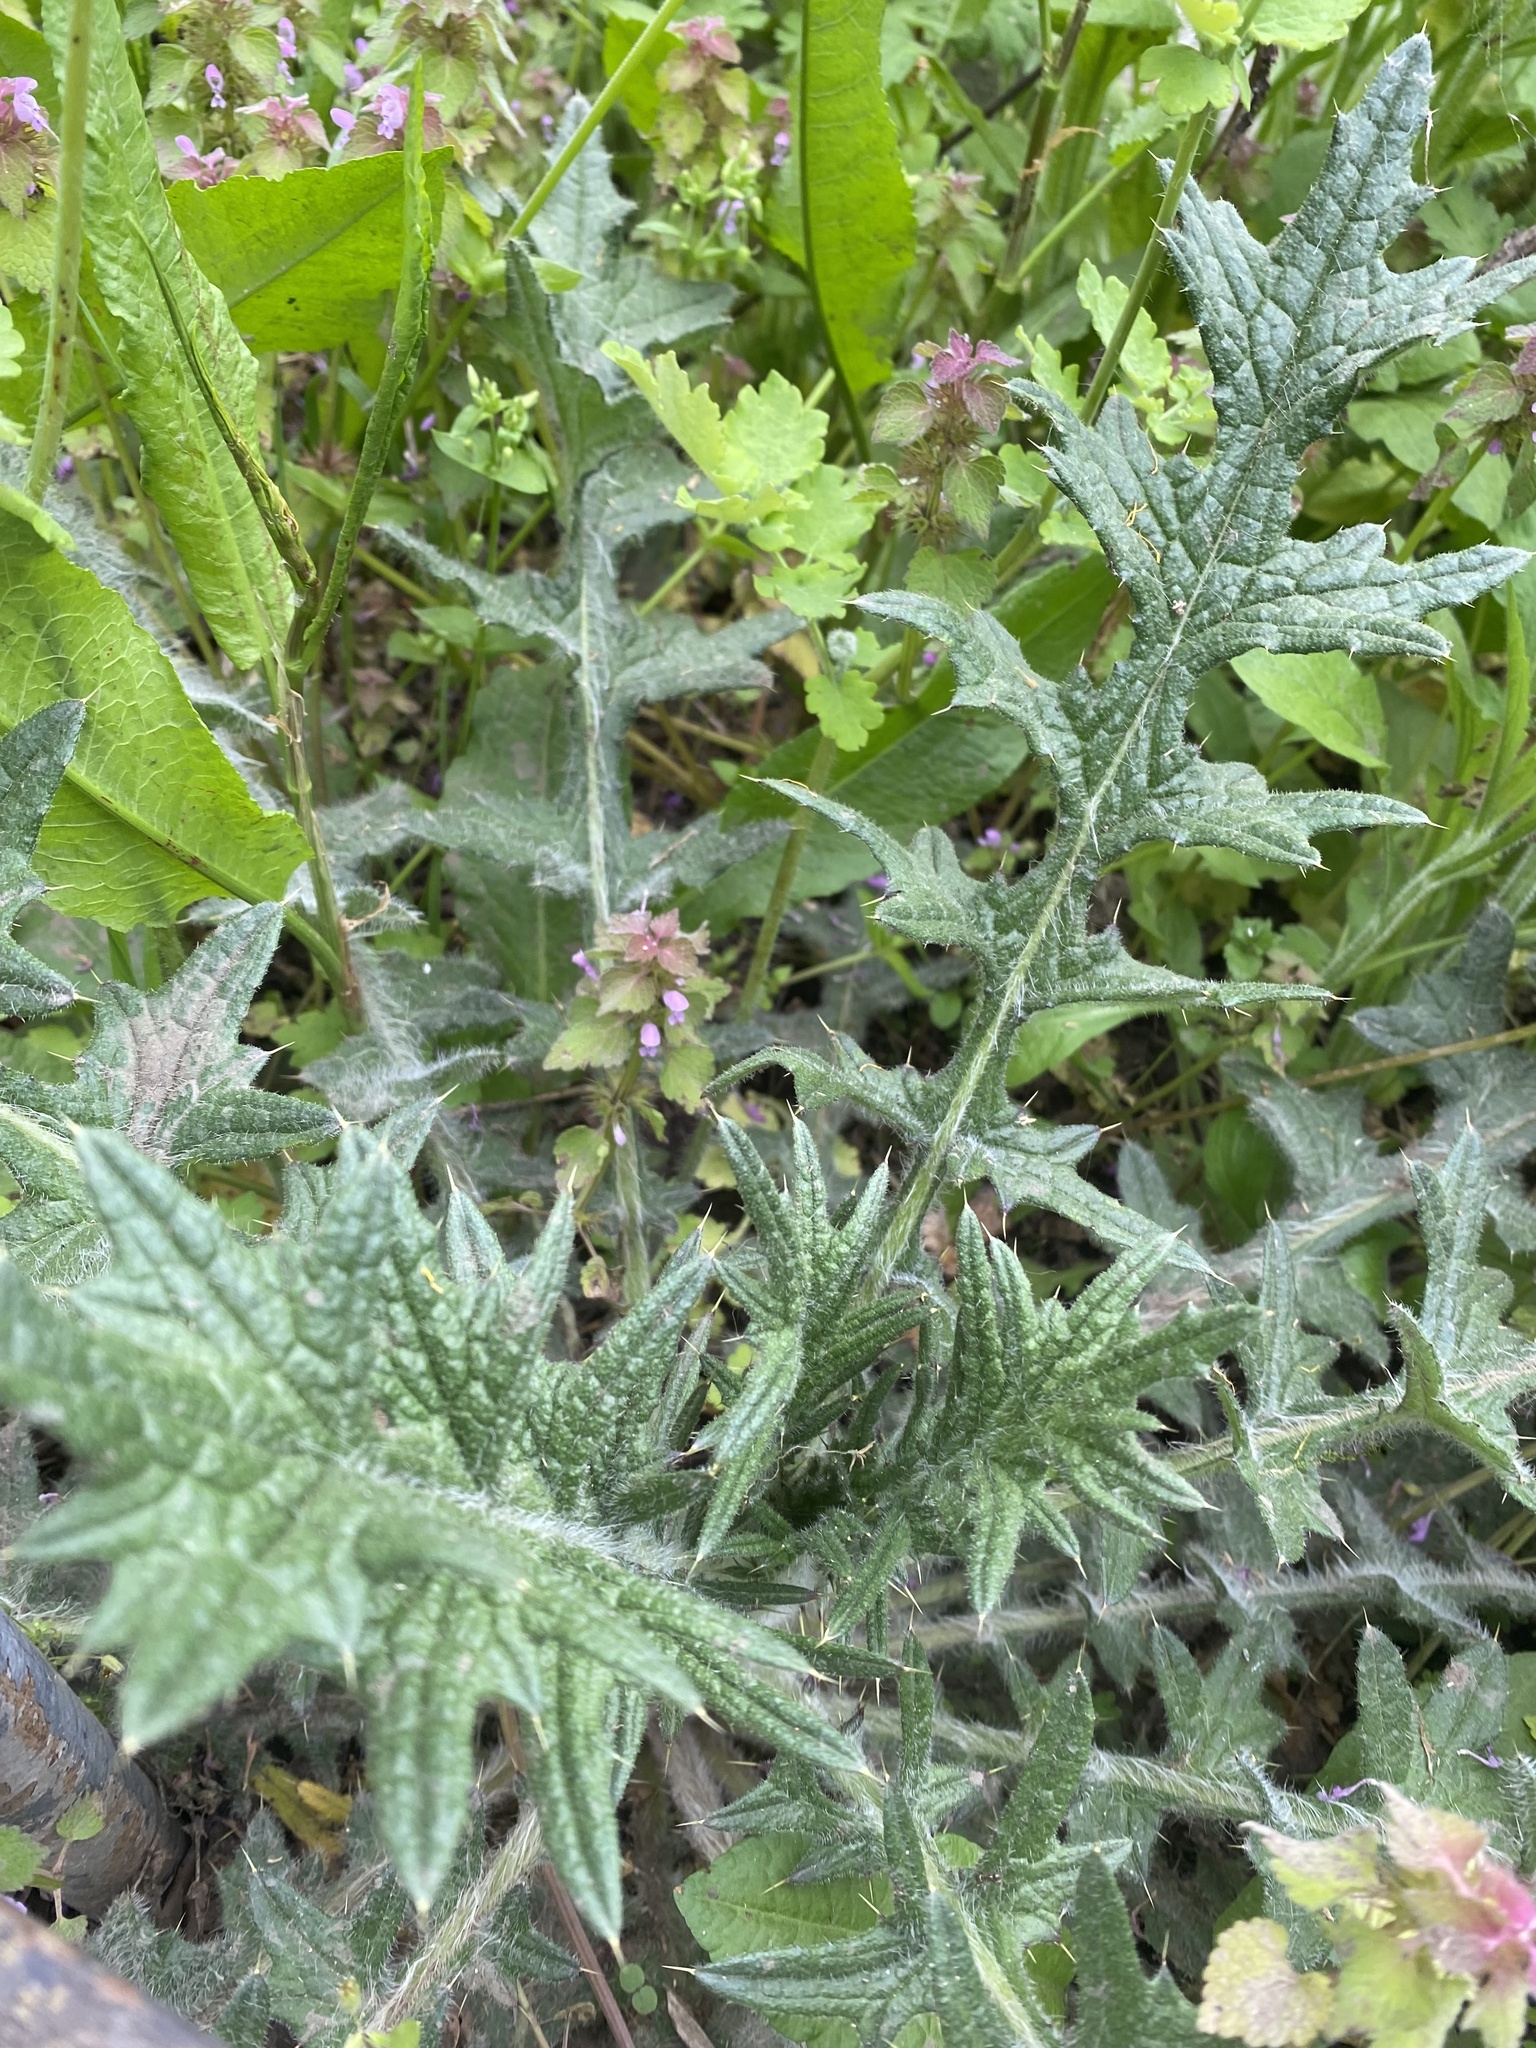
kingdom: Plantae
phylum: Tracheophyta
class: Magnoliopsida
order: Asterales
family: Asteraceae
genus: Cirsium
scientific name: Cirsium vulgare
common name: Bull thistle
